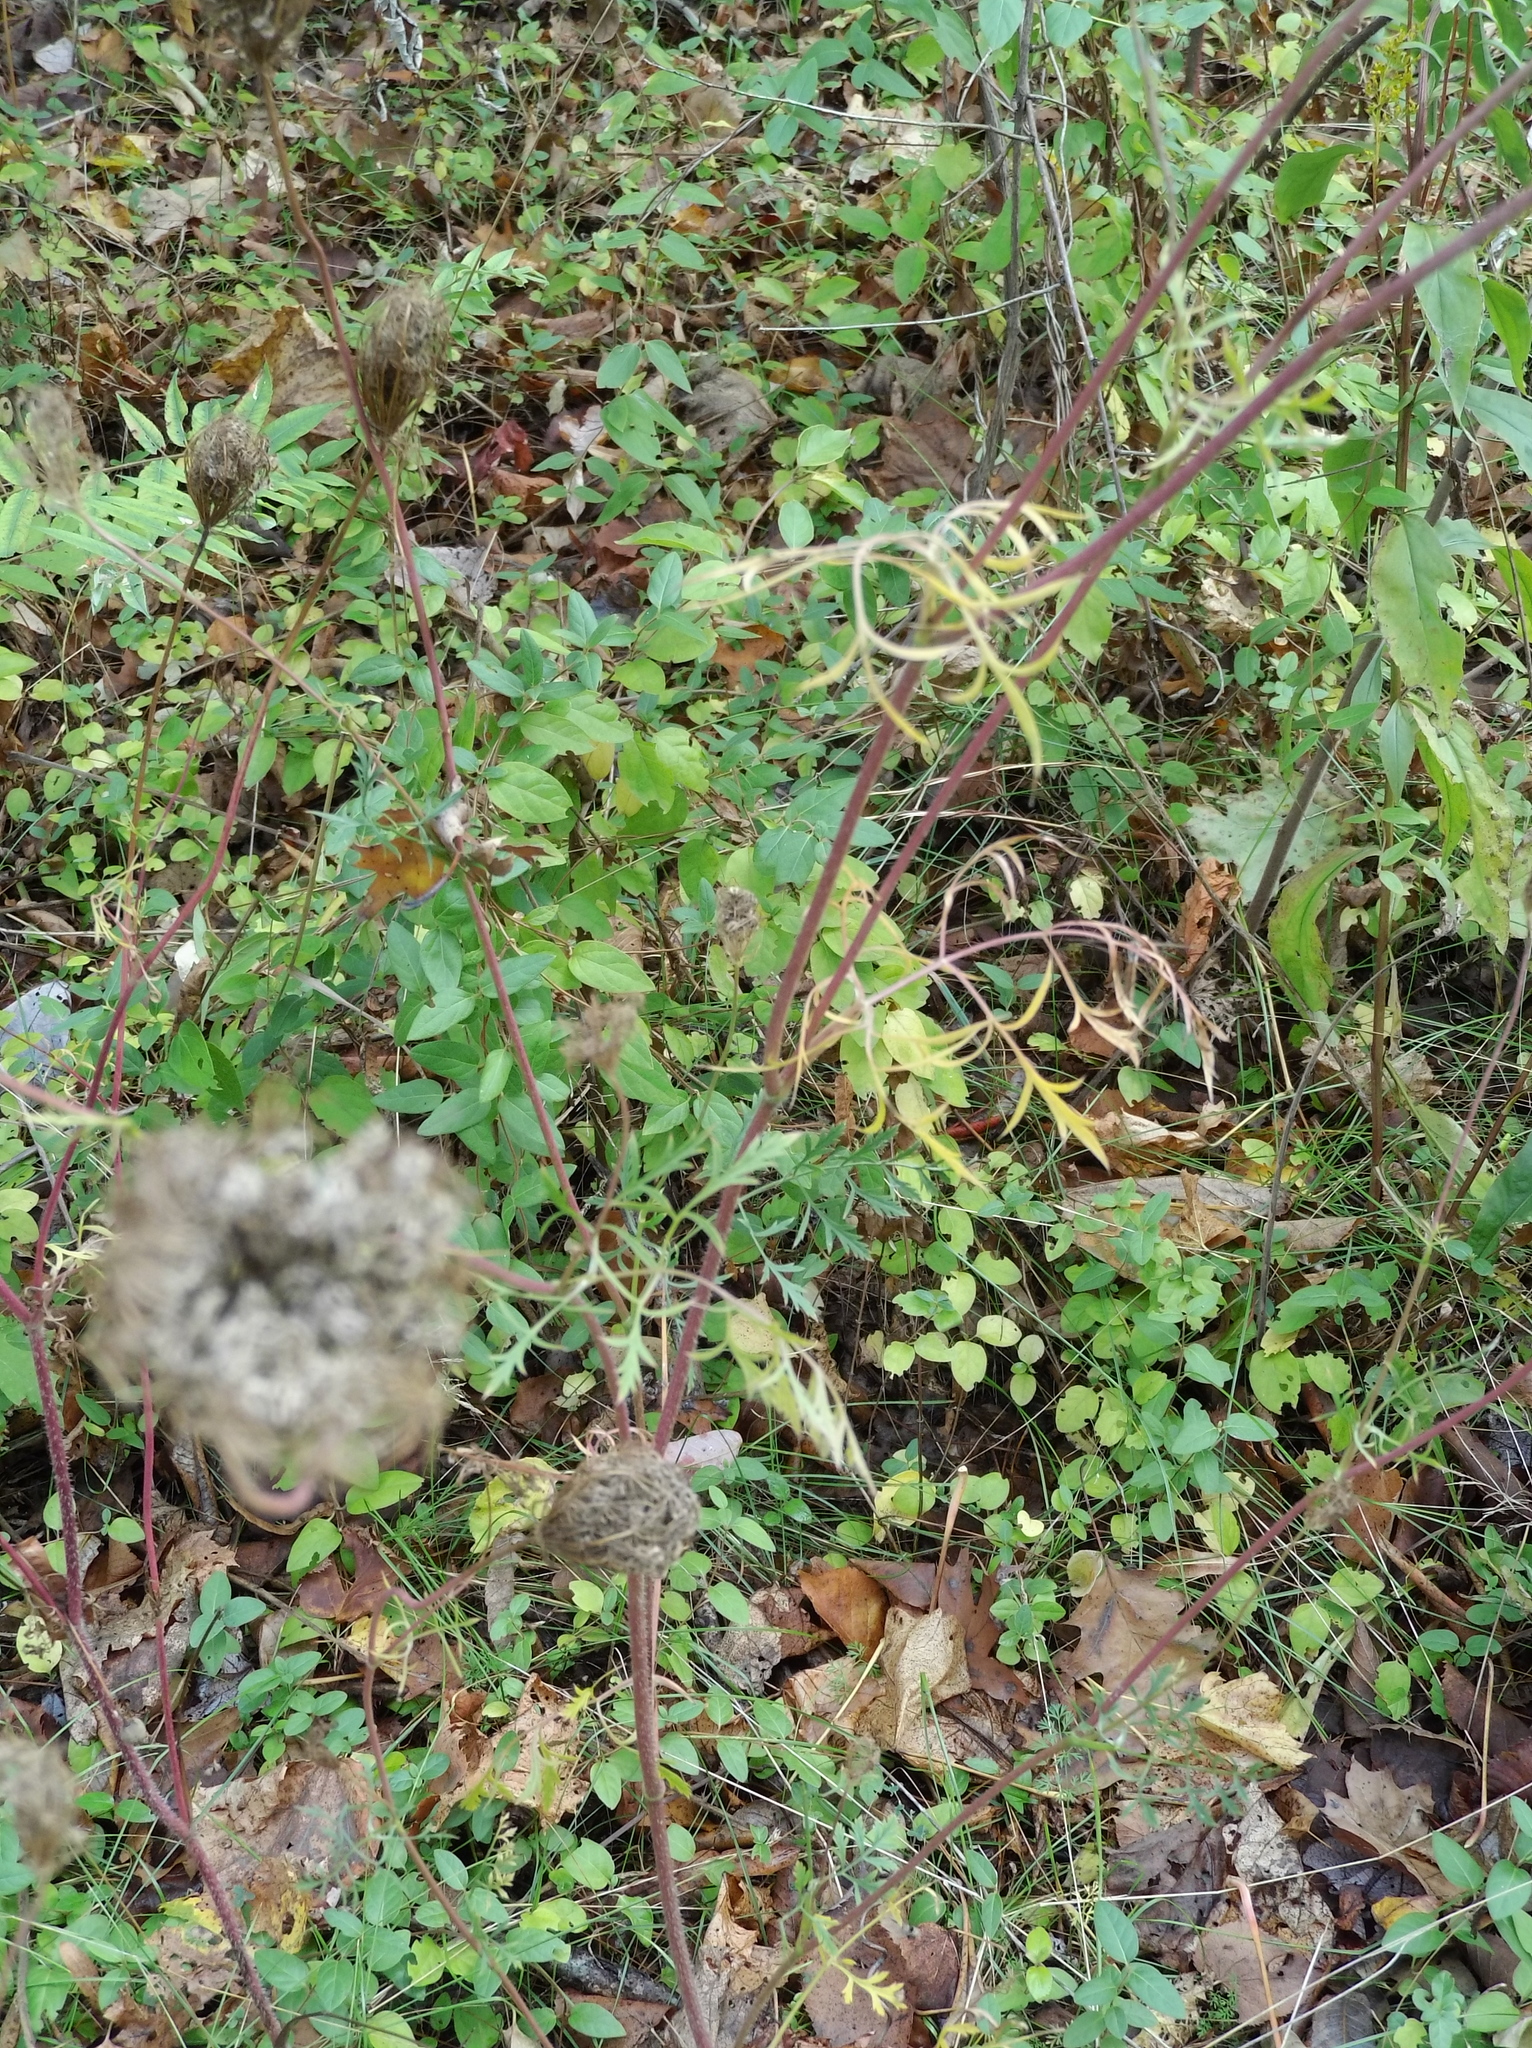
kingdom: Plantae
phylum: Tracheophyta
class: Magnoliopsida
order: Apiales
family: Apiaceae
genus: Daucus
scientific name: Daucus carota
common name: Wild carrot
